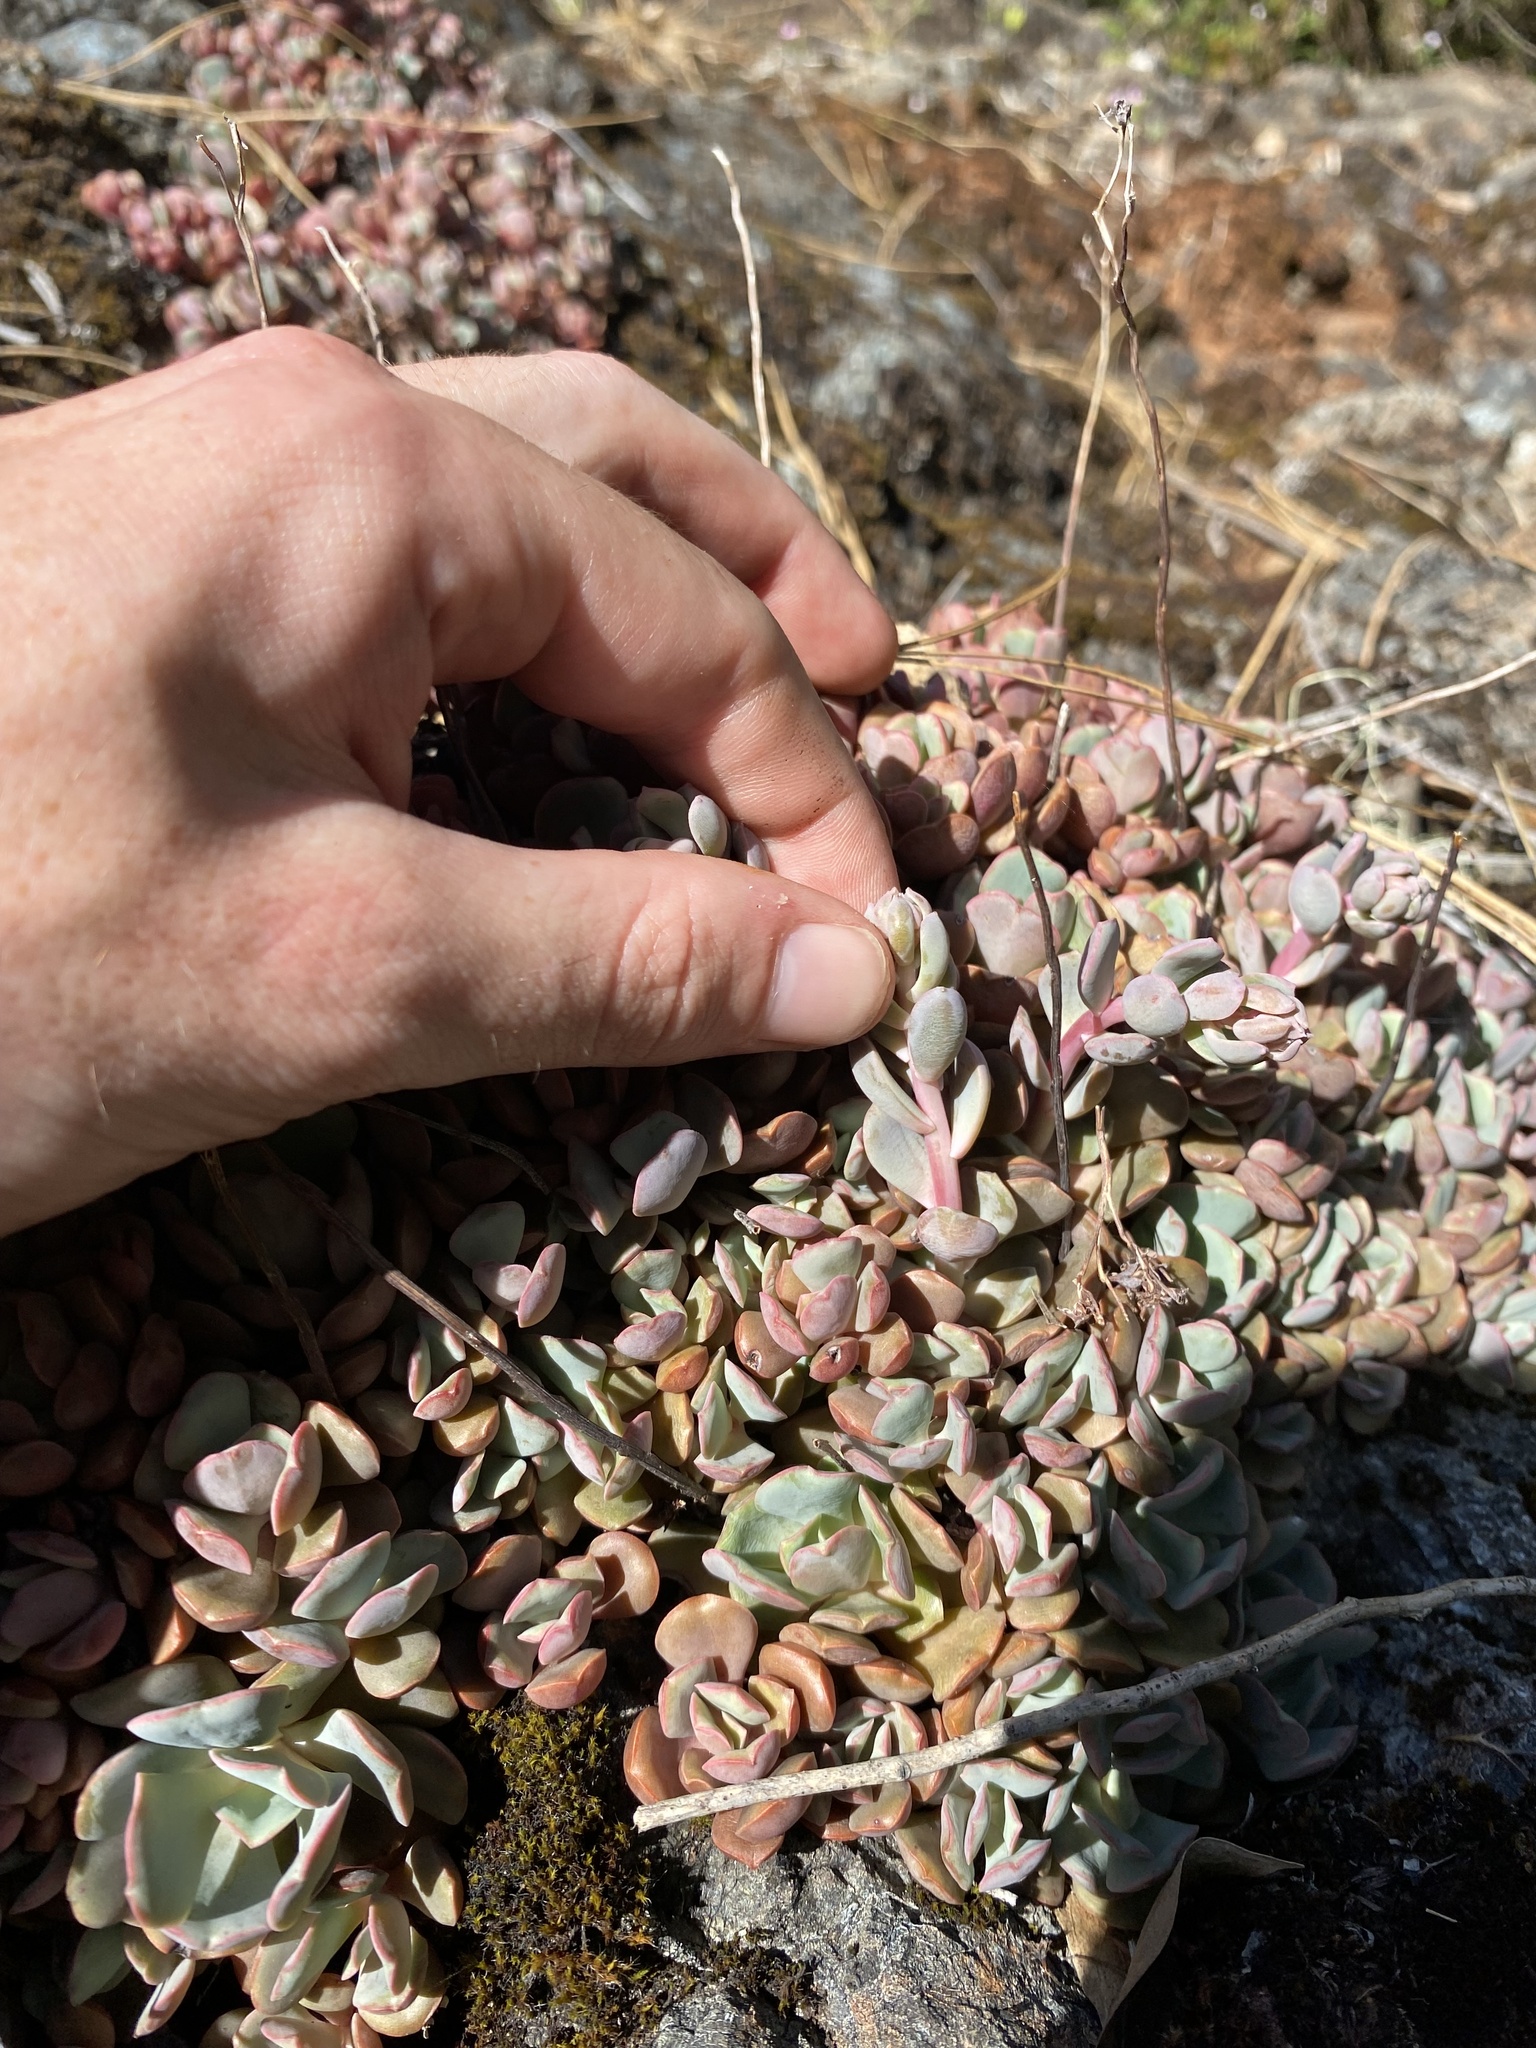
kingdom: Plantae
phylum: Tracheophyta
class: Magnoliopsida
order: Saxifragales
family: Crassulaceae
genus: Sedum
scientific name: Sedum laxum
